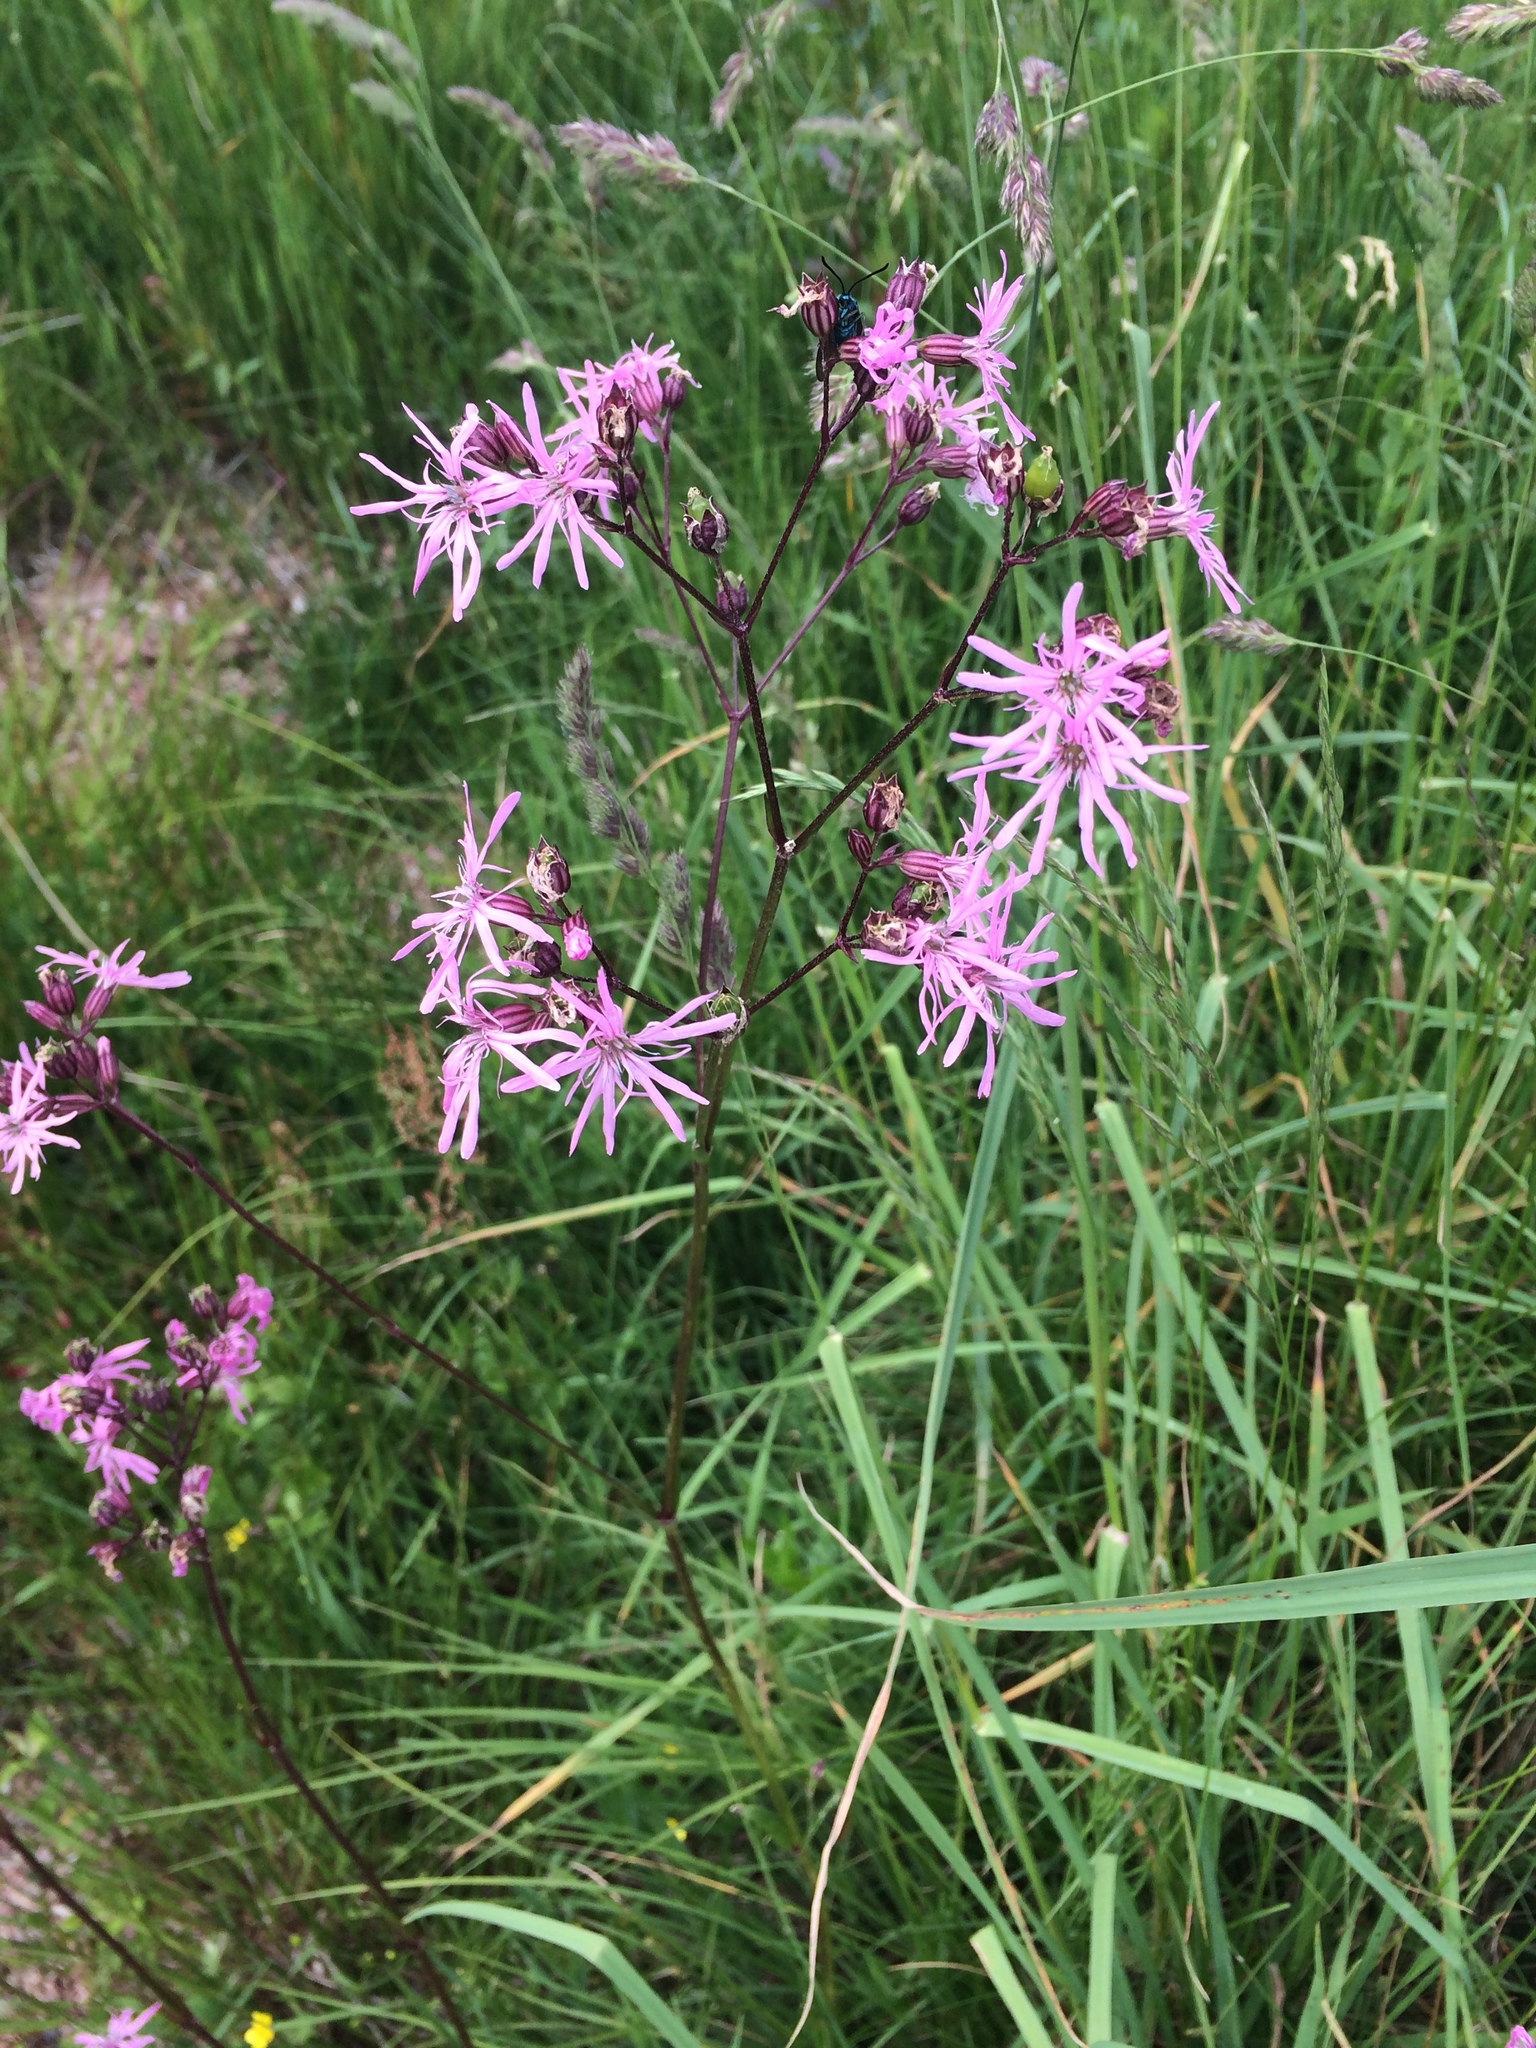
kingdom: Plantae
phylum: Tracheophyta
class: Magnoliopsida
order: Caryophyllales
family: Caryophyllaceae
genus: Silene
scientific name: Silene flos-cuculi
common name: Ragged-robin
